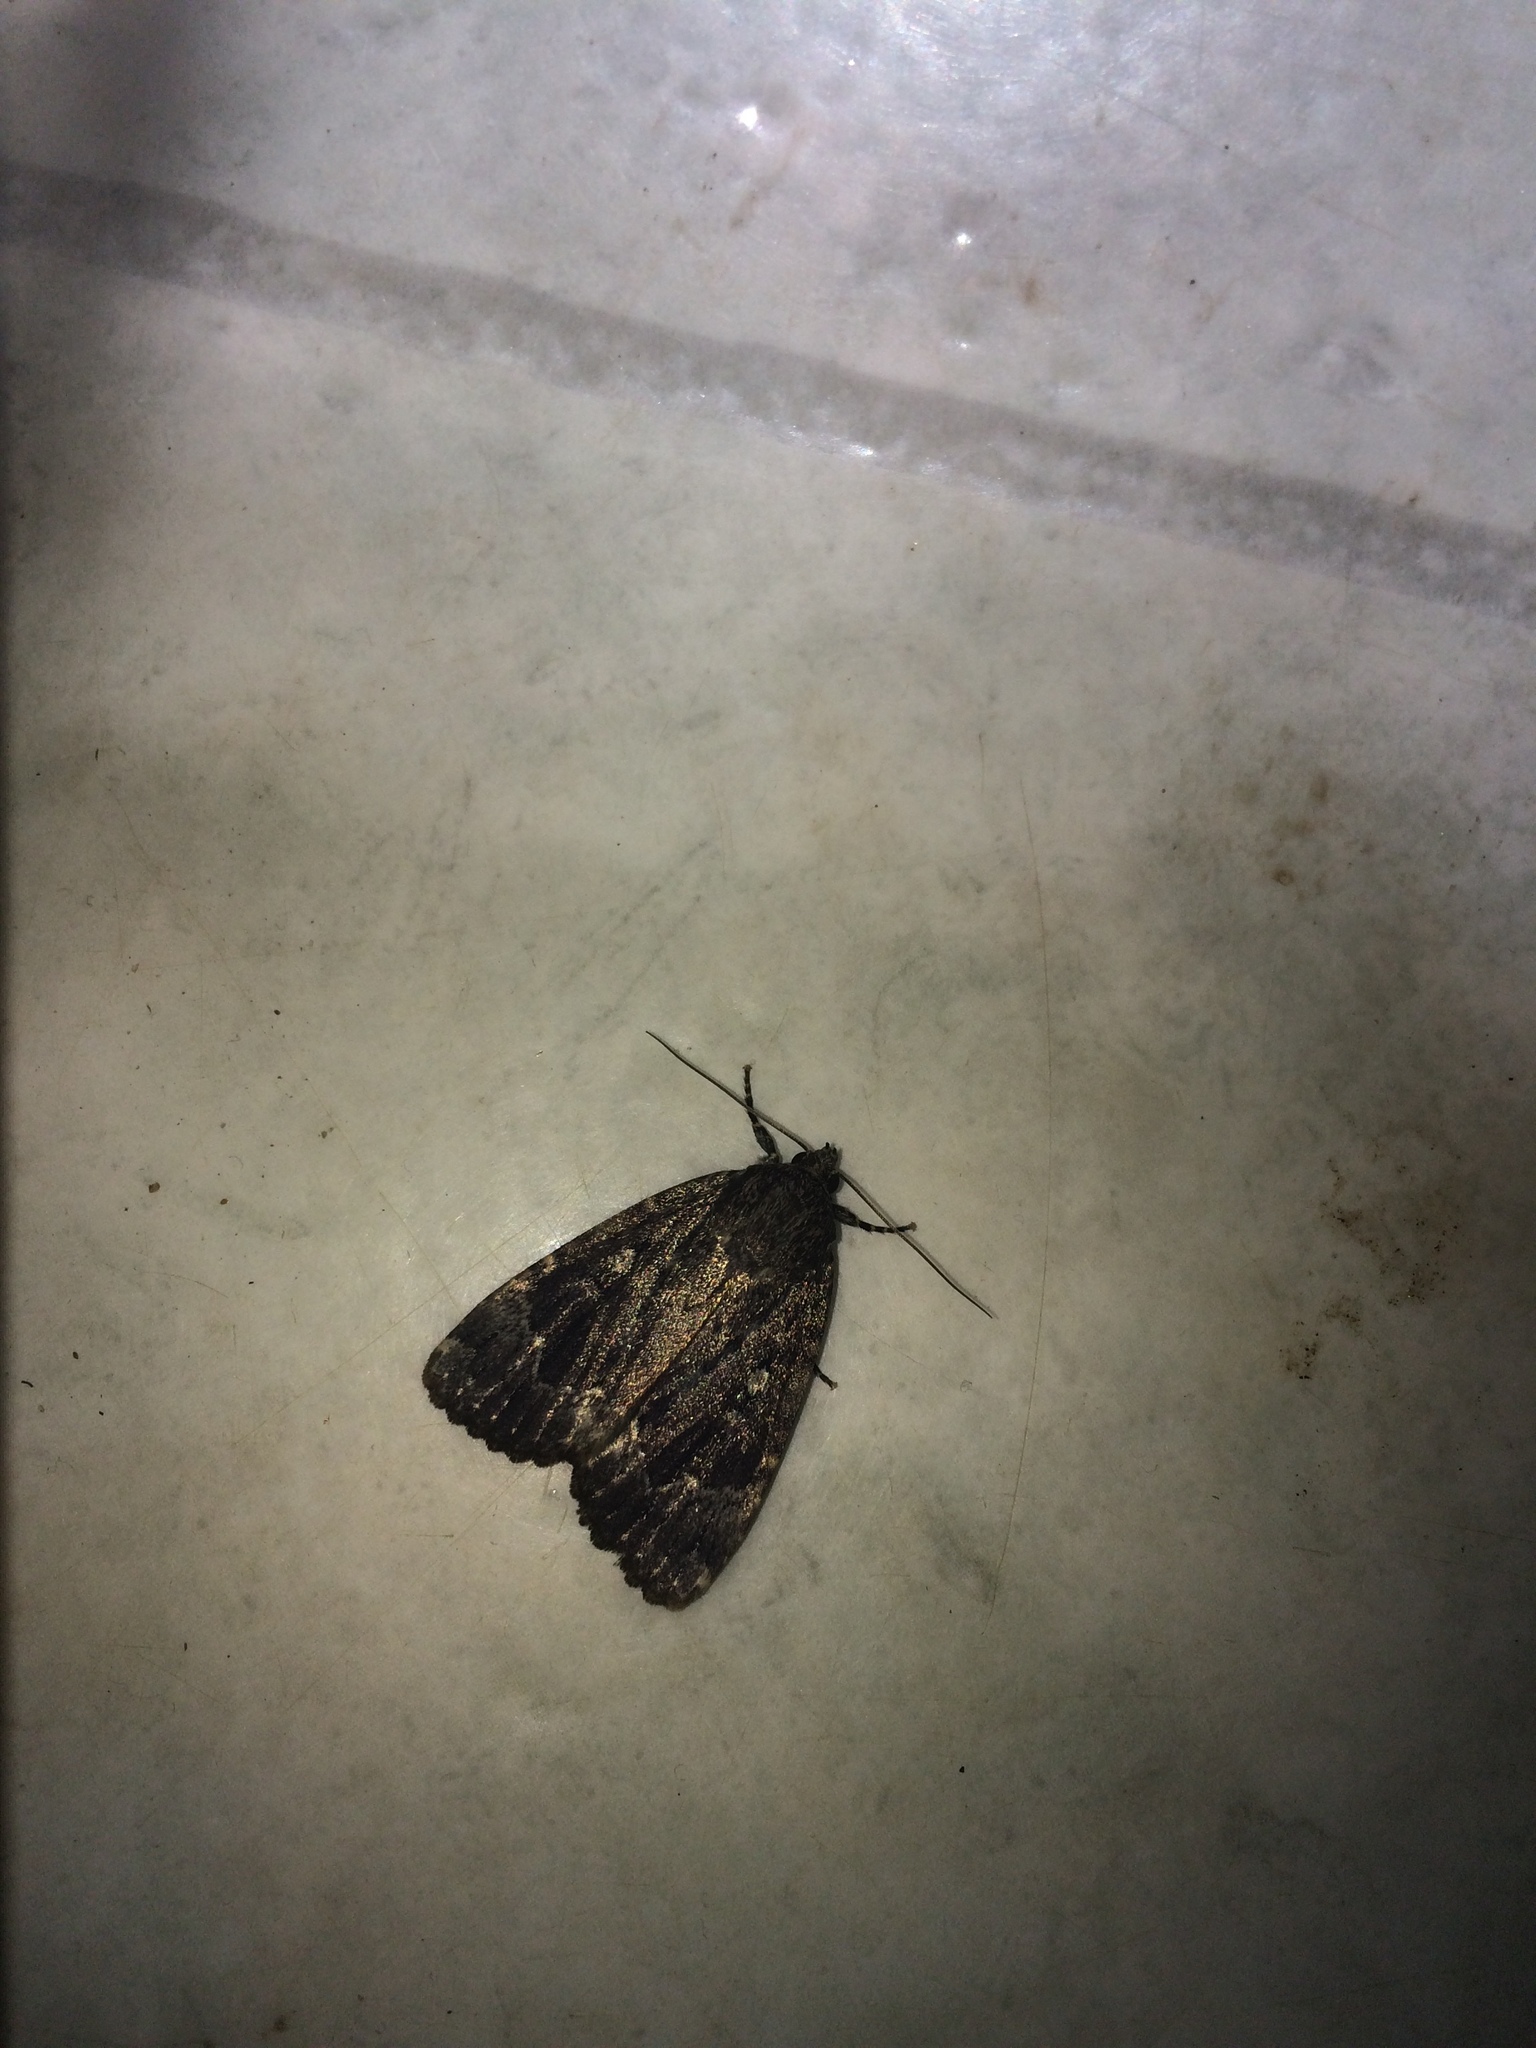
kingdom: Animalia
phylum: Arthropoda
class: Insecta
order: Lepidoptera
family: Noctuidae
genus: Amphipyra
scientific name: Amphipyra pyramidoides
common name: American copper underwing
